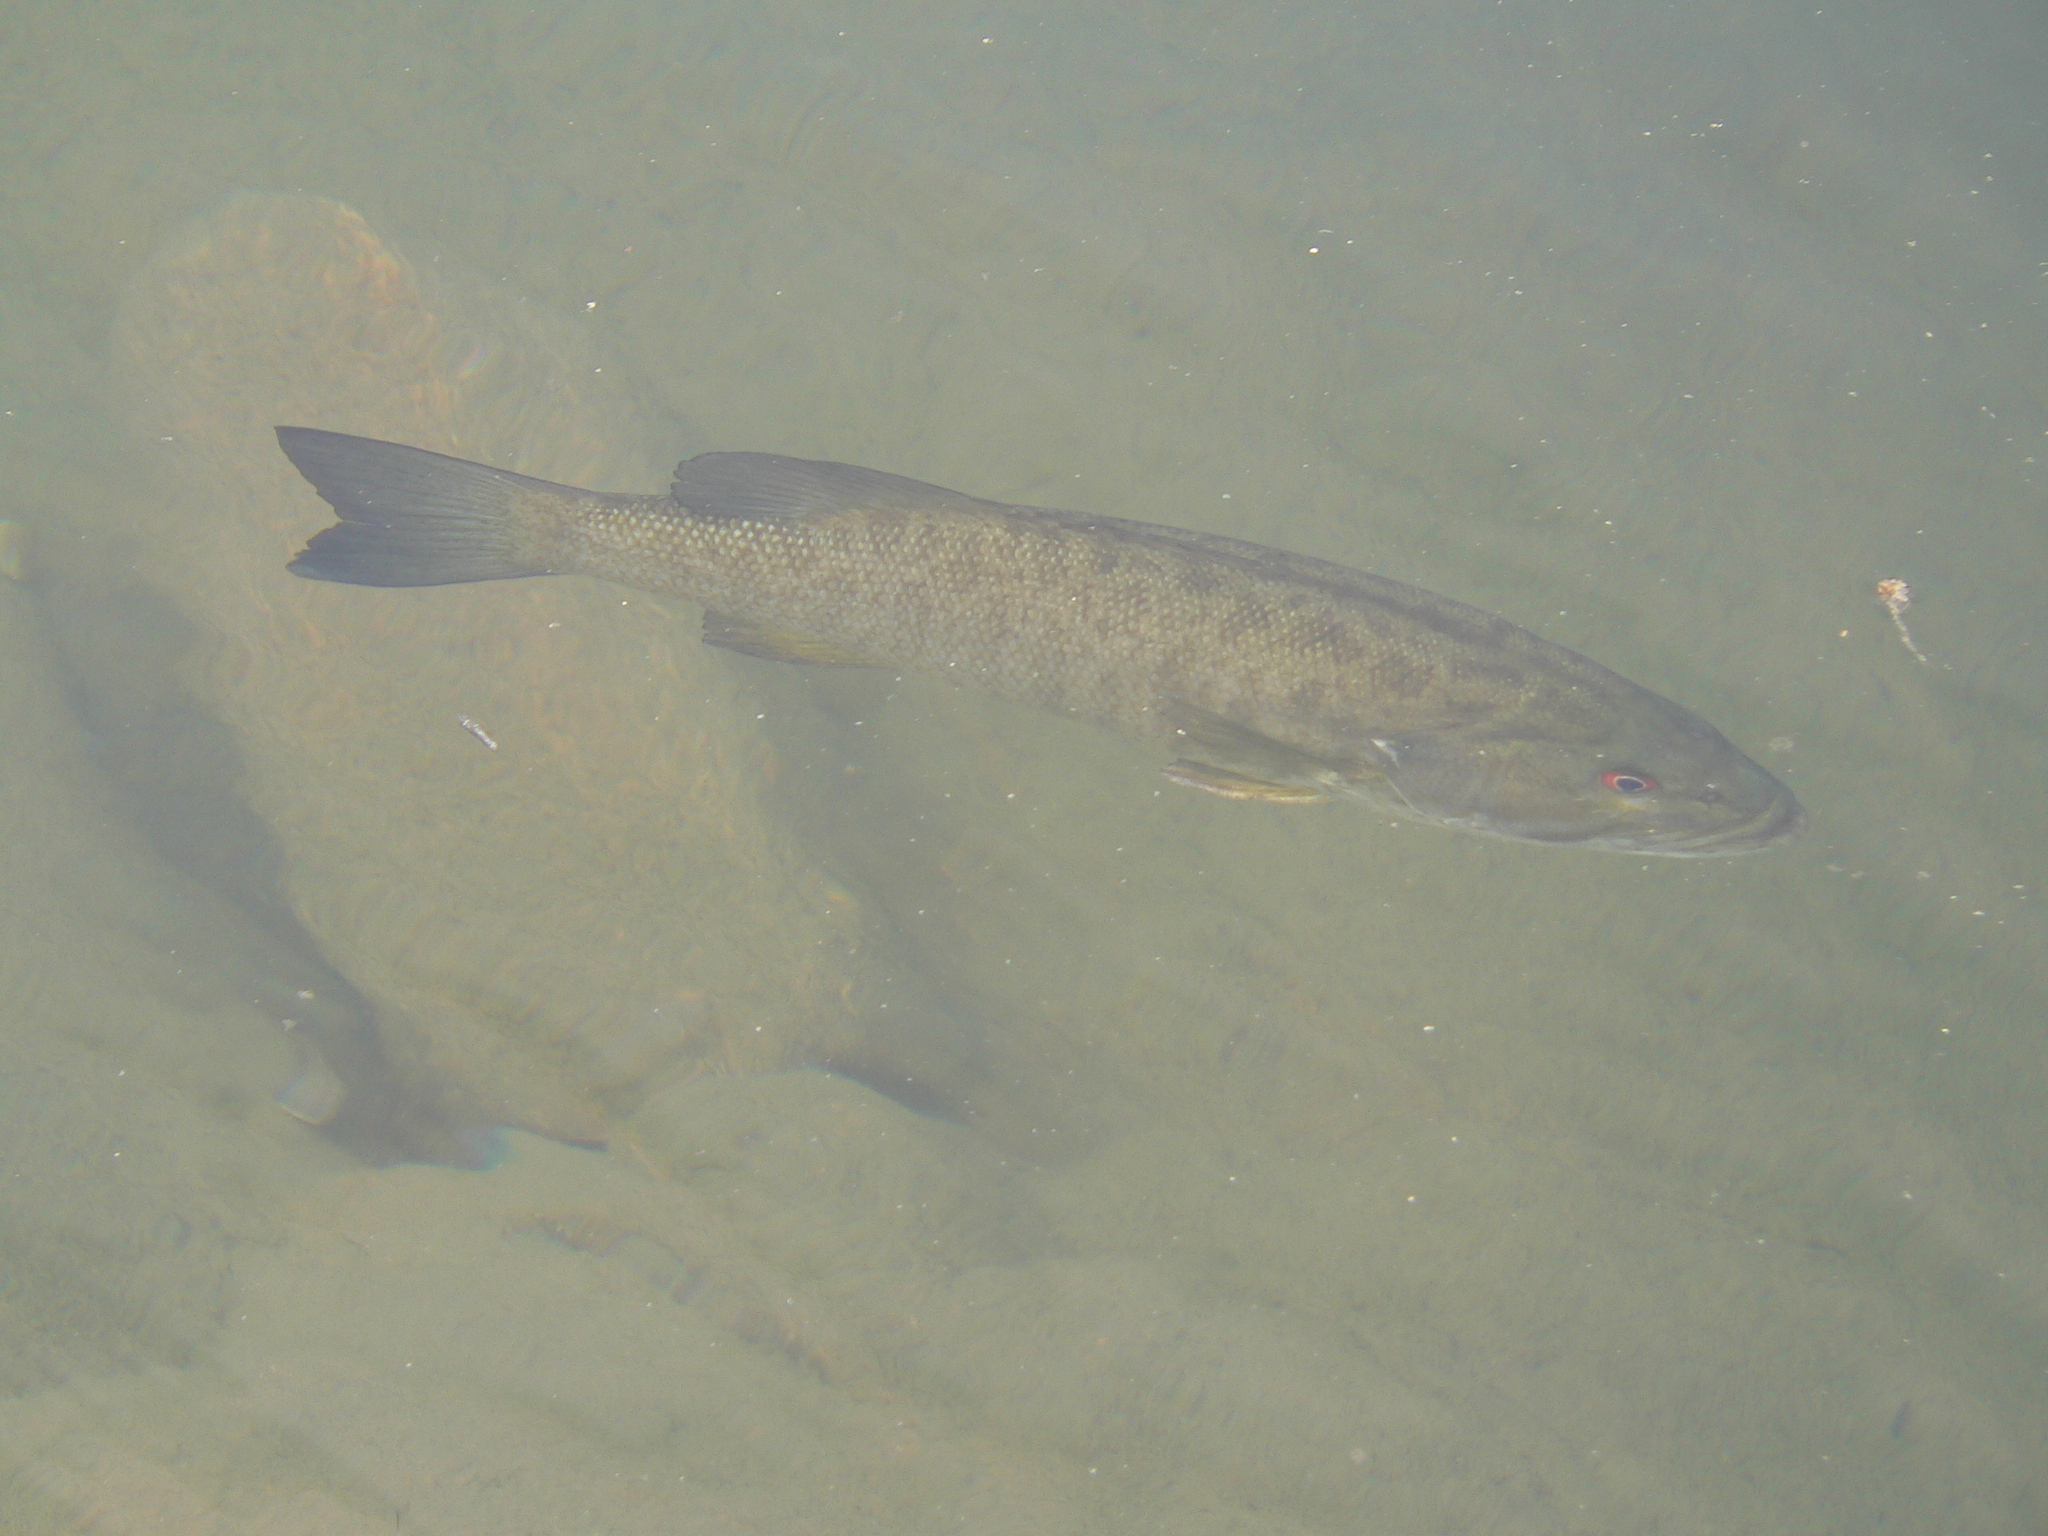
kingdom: Animalia
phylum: Chordata
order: Perciformes
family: Centrarchidae
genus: Micropterus
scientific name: Micropterus dolomieu
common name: Smallmouth bass
